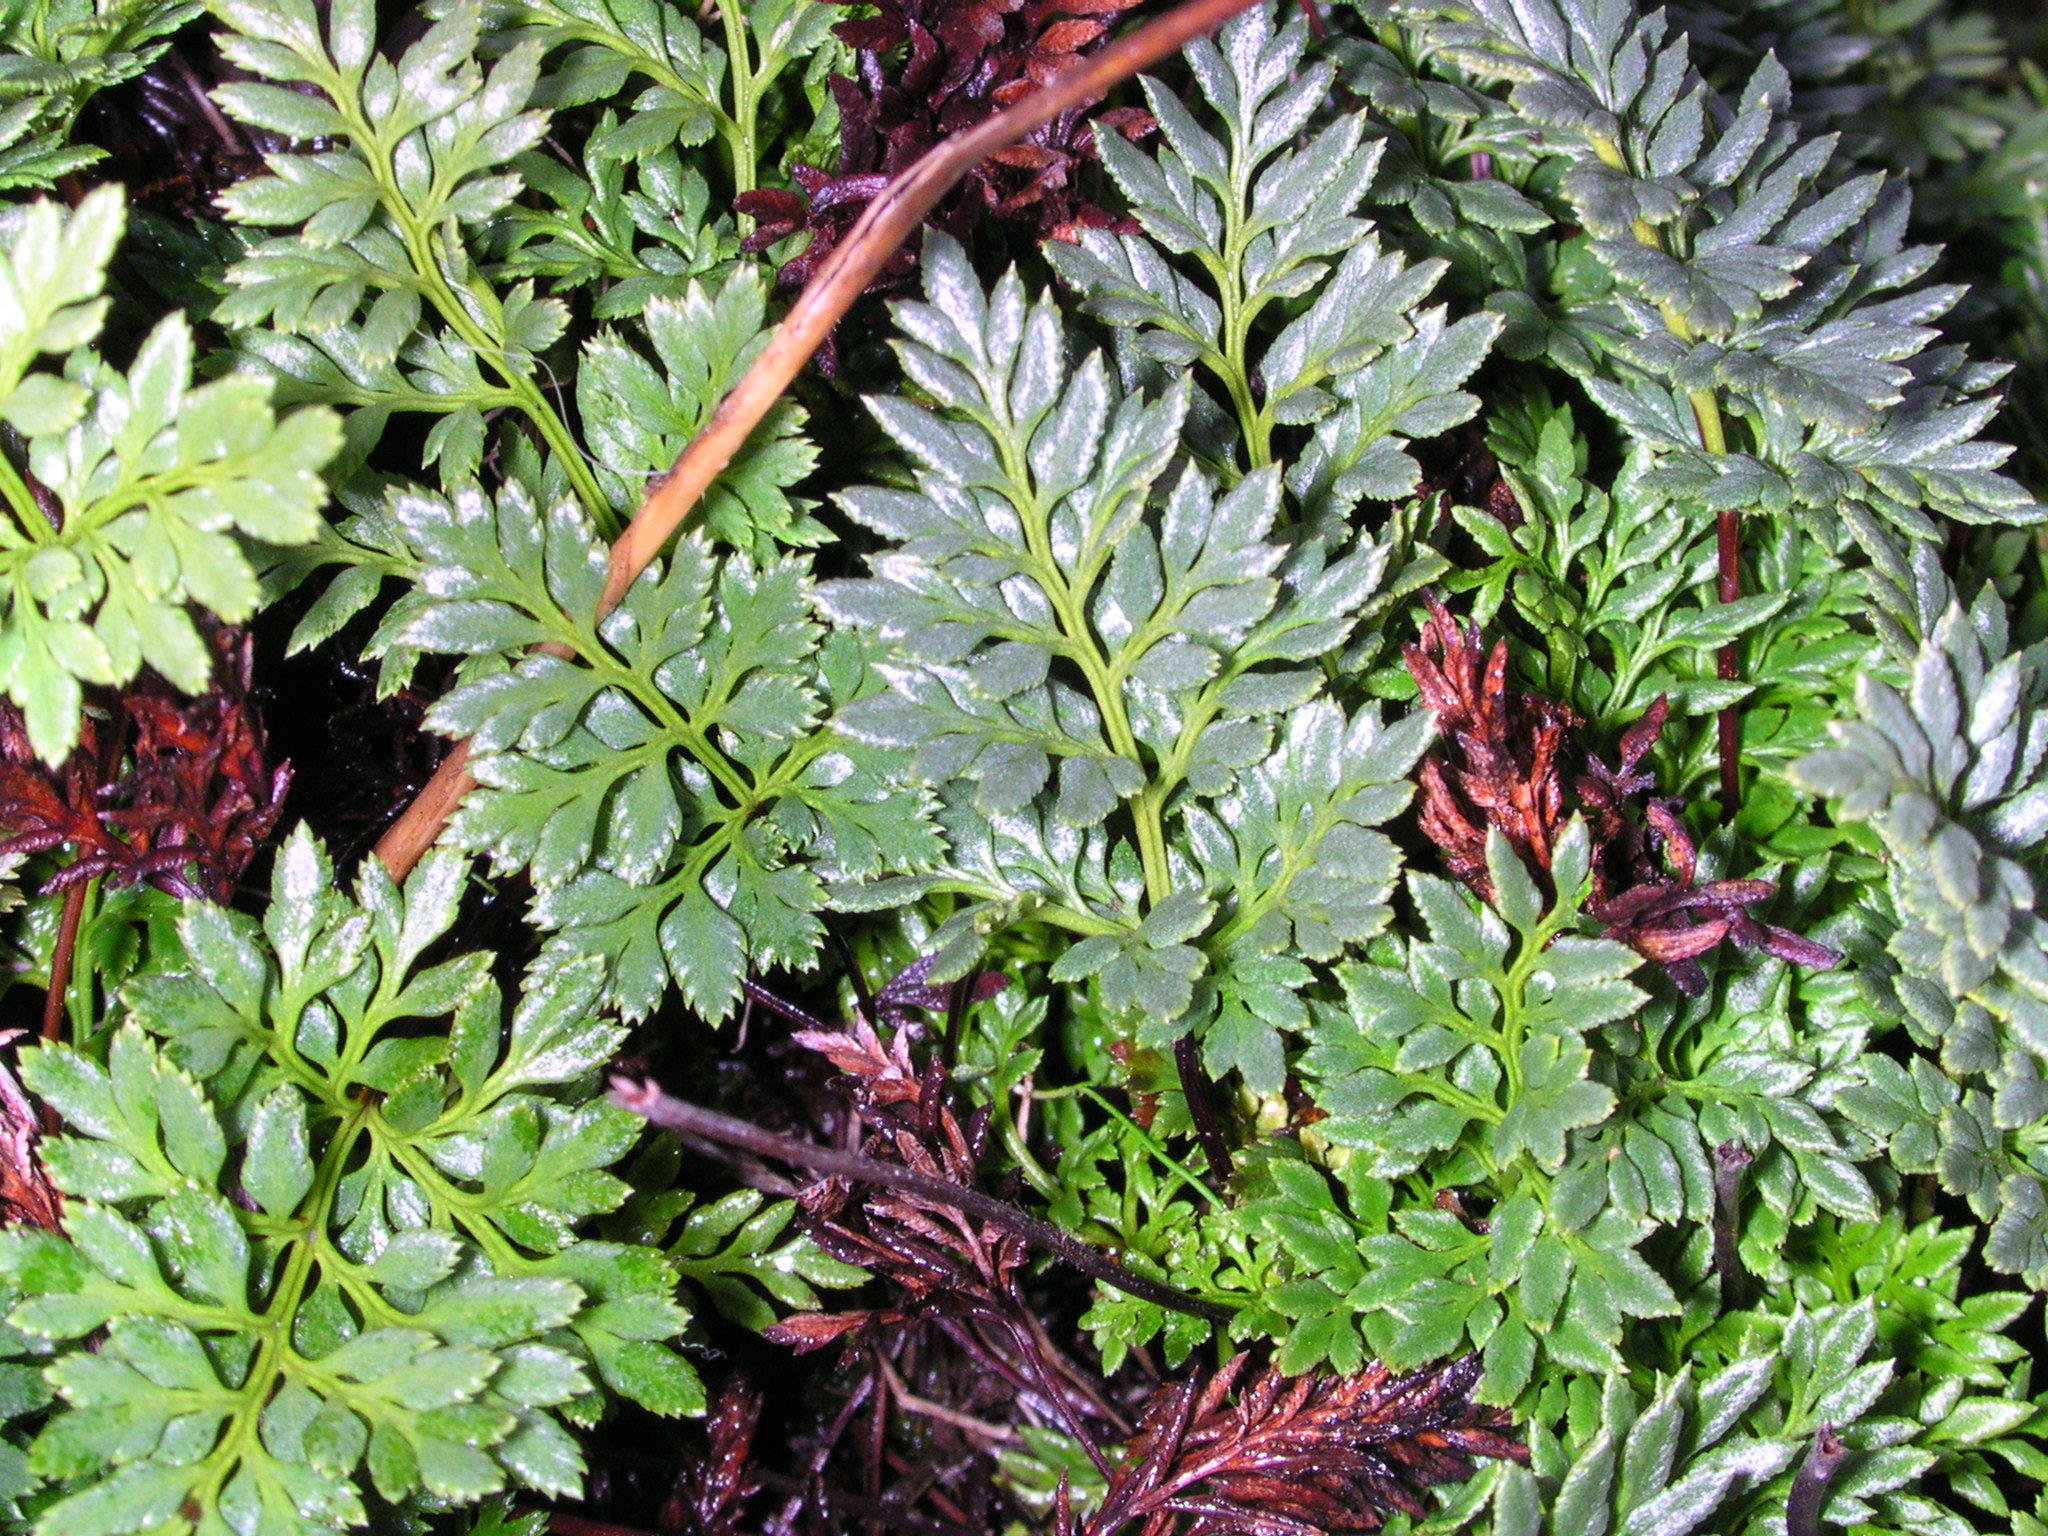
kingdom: Plantae
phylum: Tracheophyta
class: Polypodiopsida
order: Polypodiales
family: Pteridaceae
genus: Aspidotis
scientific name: Aspidotis densa
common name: Indian's dream
